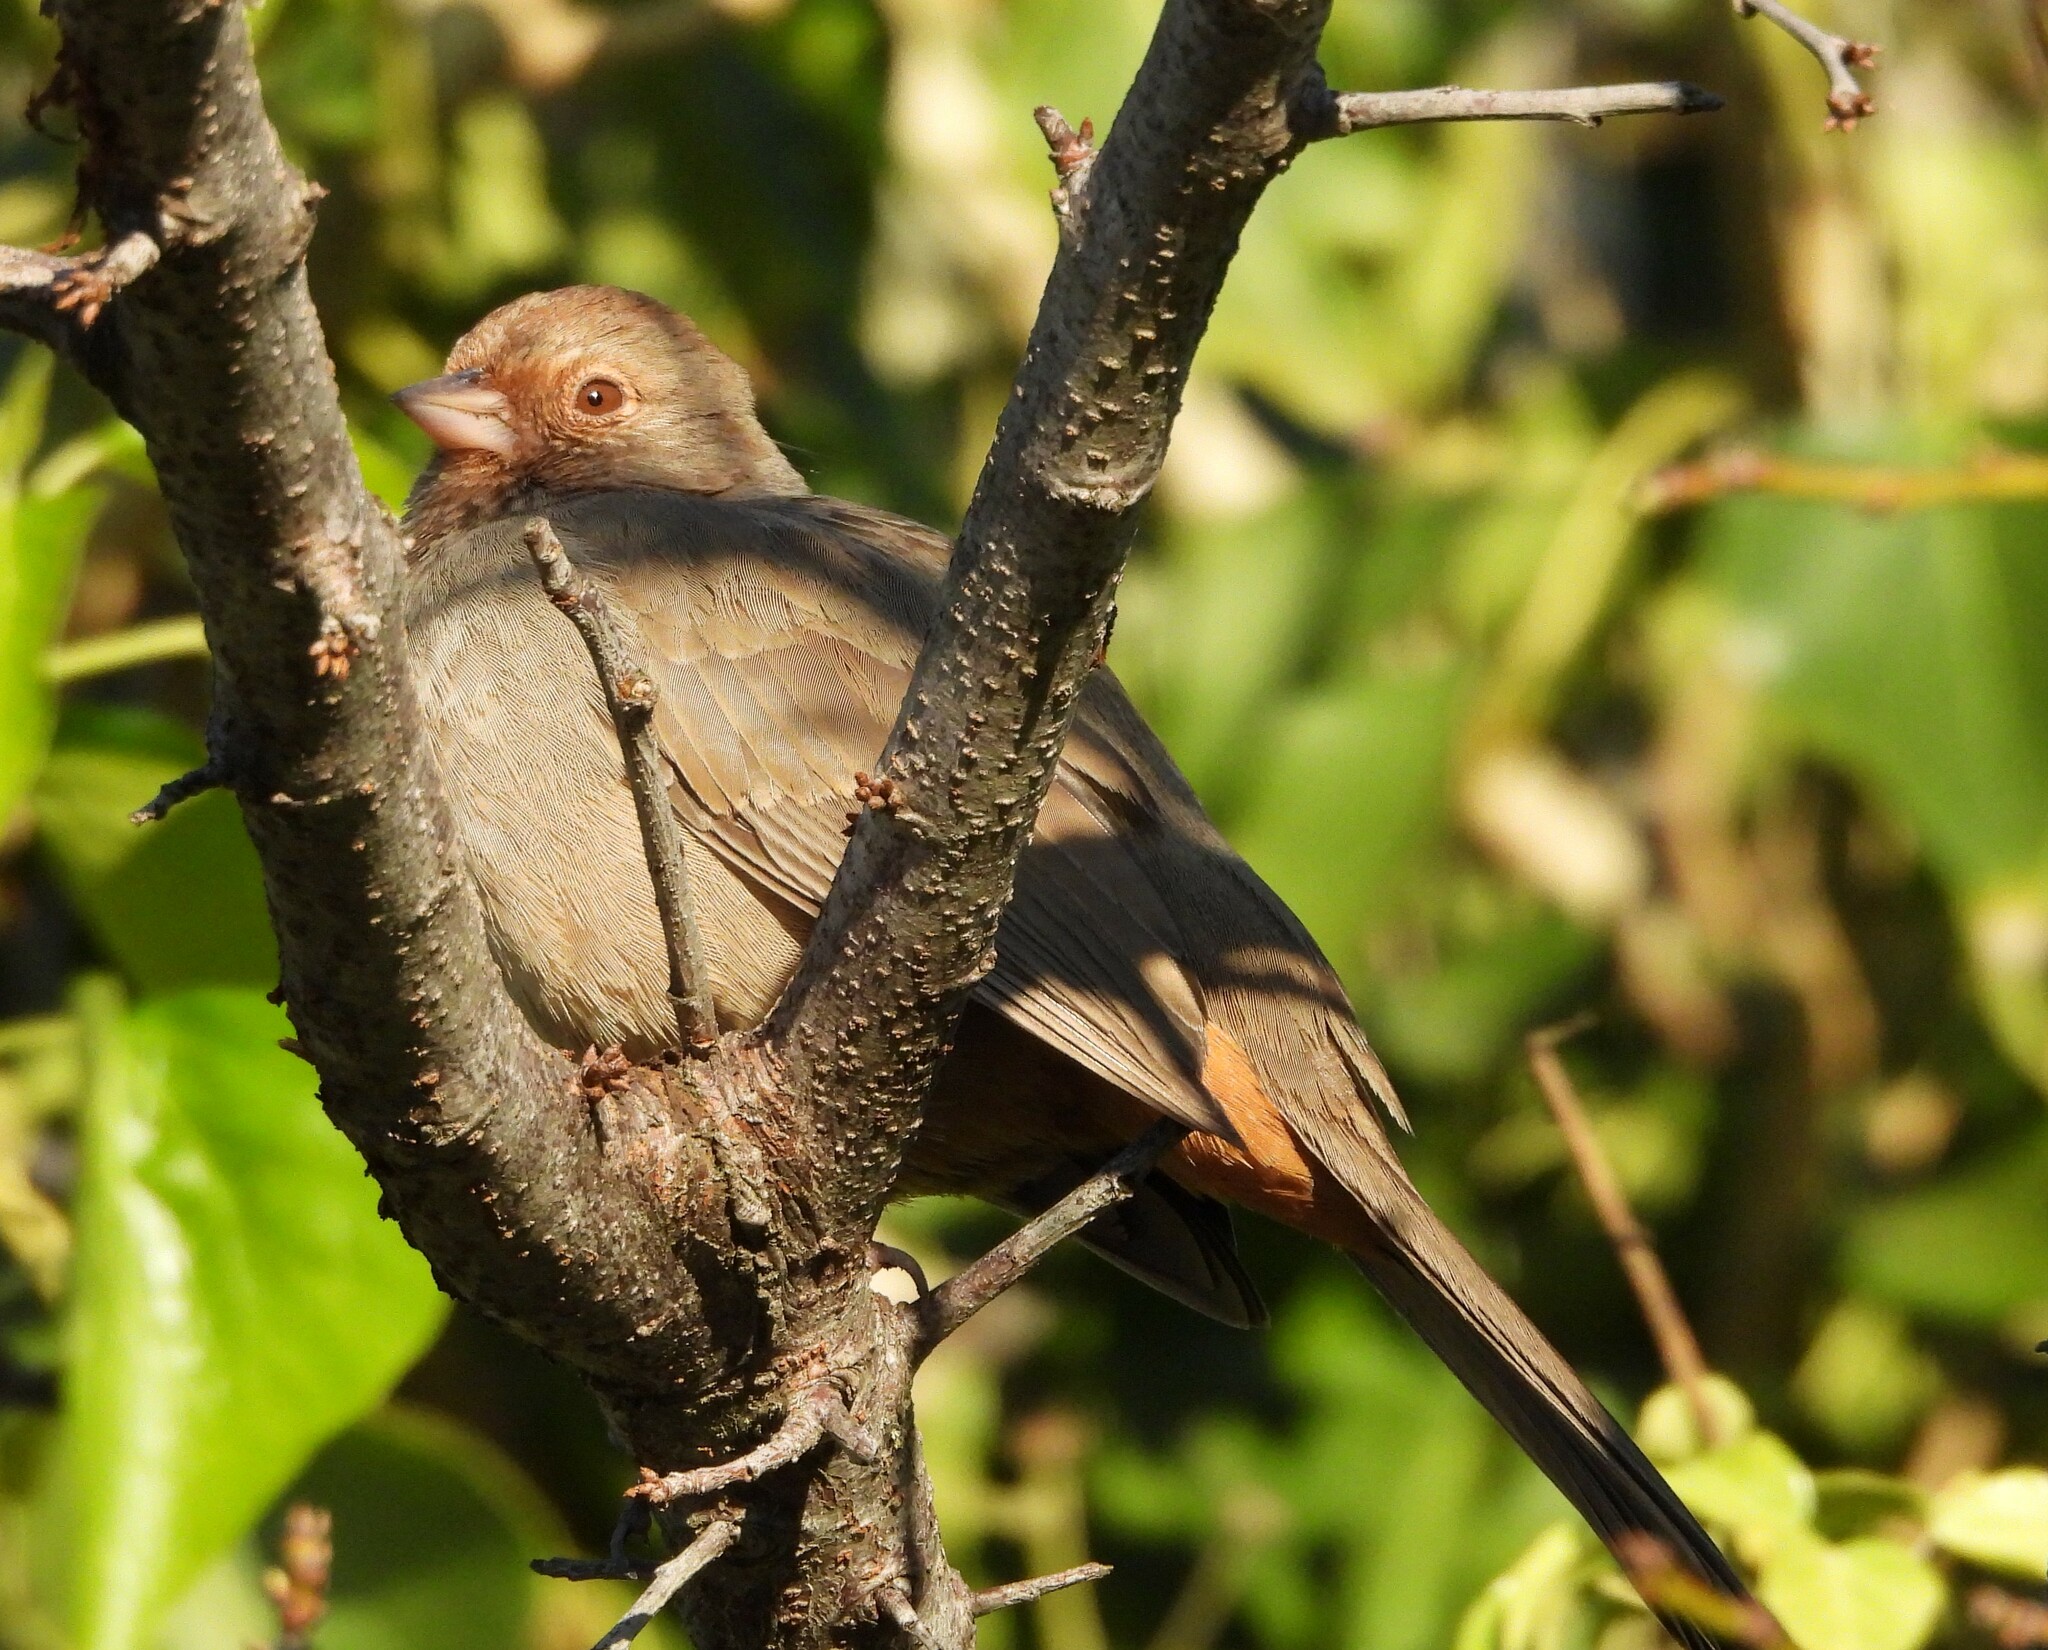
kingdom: Animalia
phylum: Chordata
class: Aves
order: Passeriformes
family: Passerellidae
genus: Melozone
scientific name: Melozone crissalis
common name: California towhee
